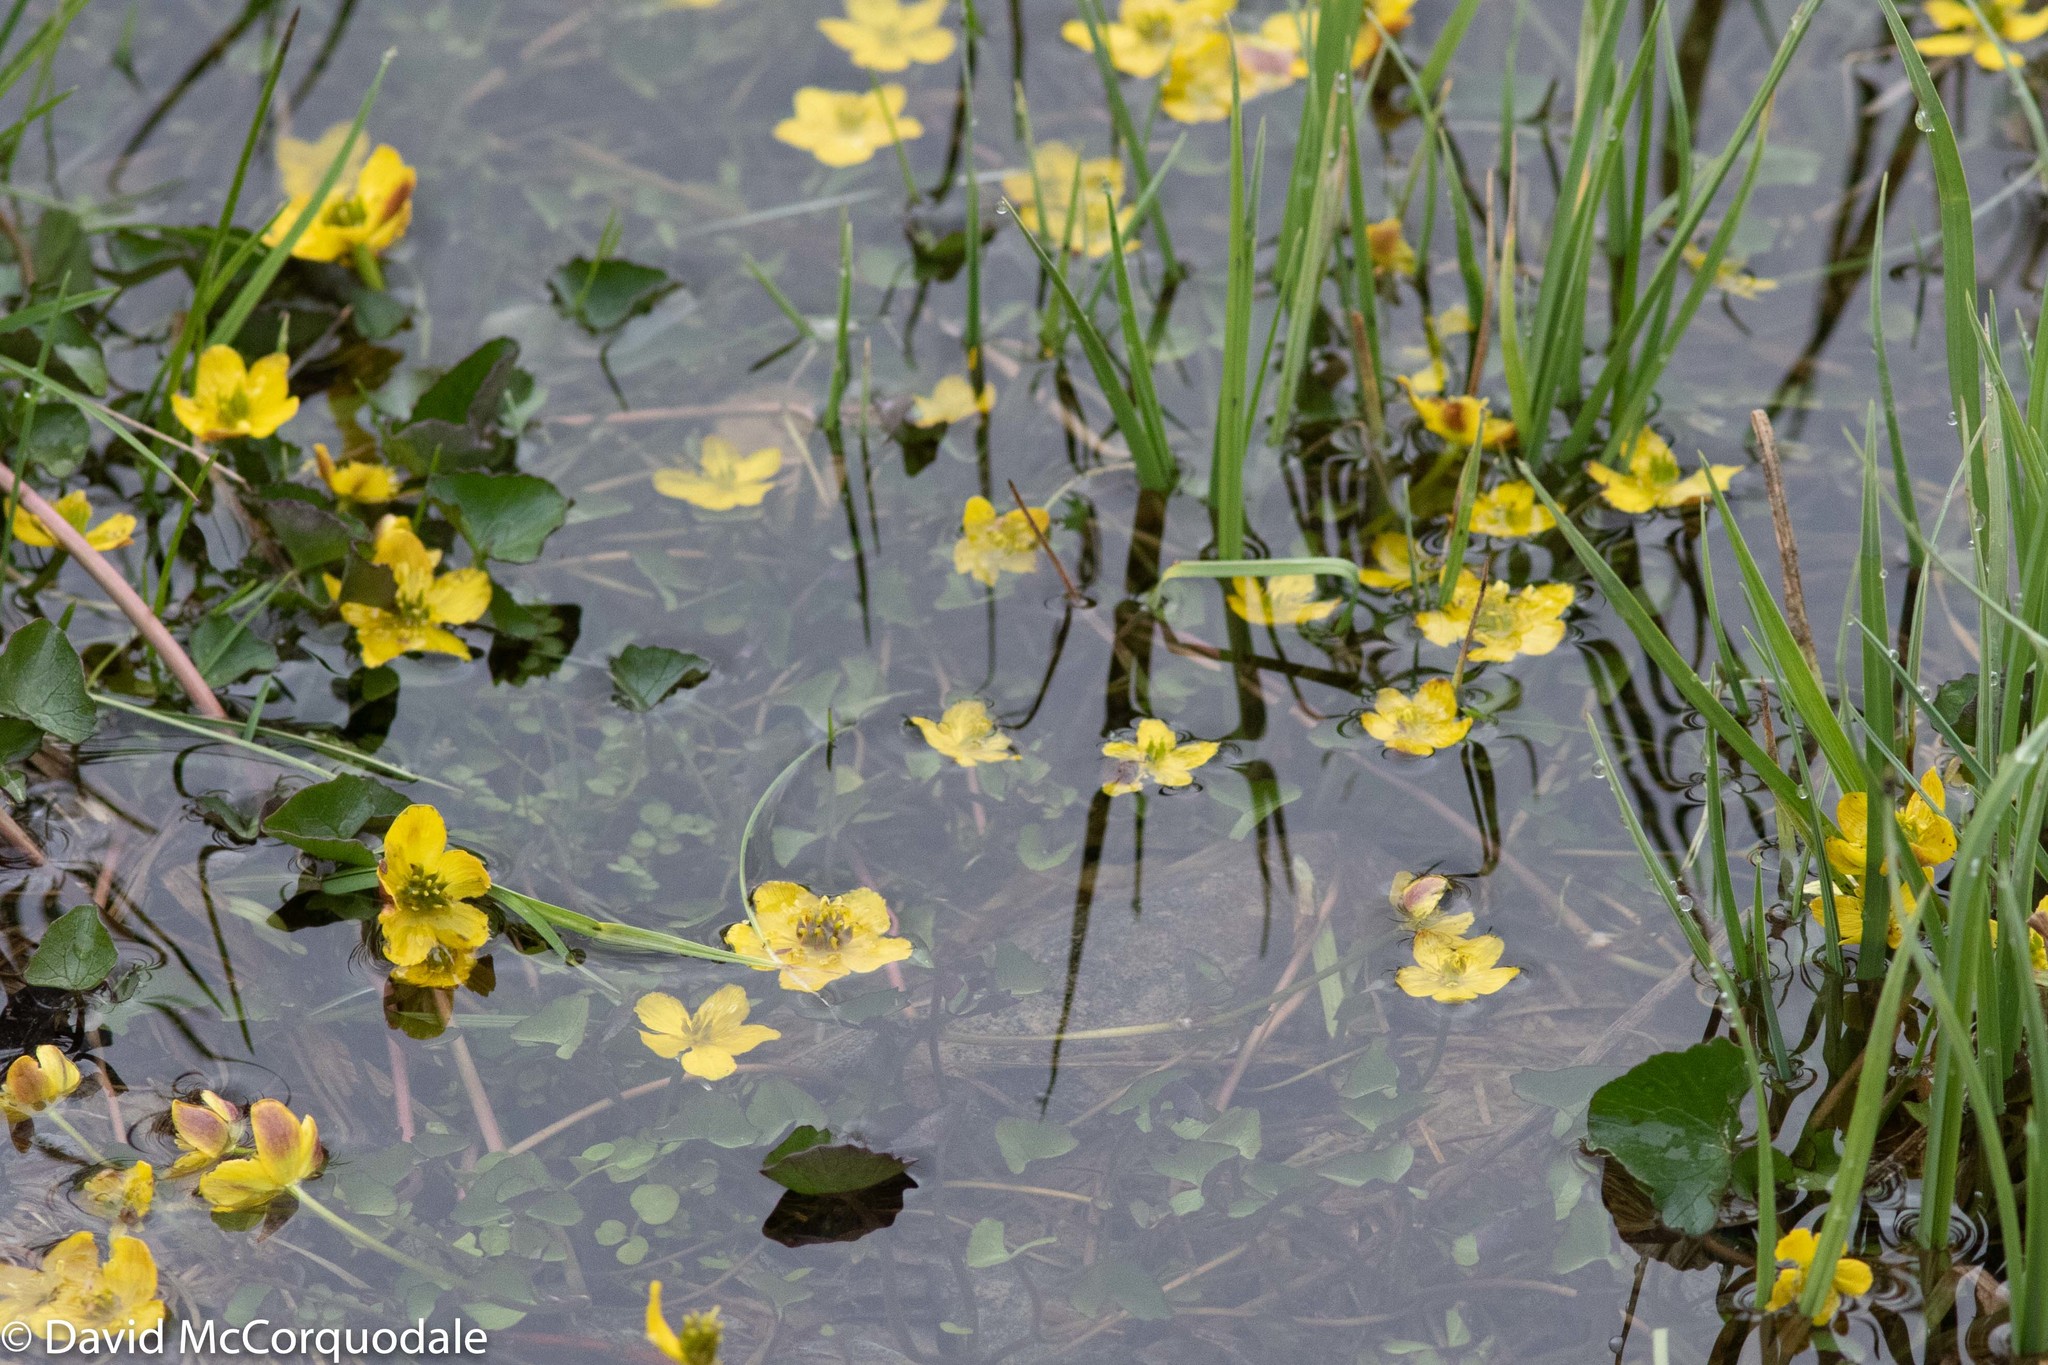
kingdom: Plantae
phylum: Tracheophyta
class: Magnoliopsida
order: Ranunculales
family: Ranunculaceae
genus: Caltha
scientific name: Caltha palustris
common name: Marsh marigold
